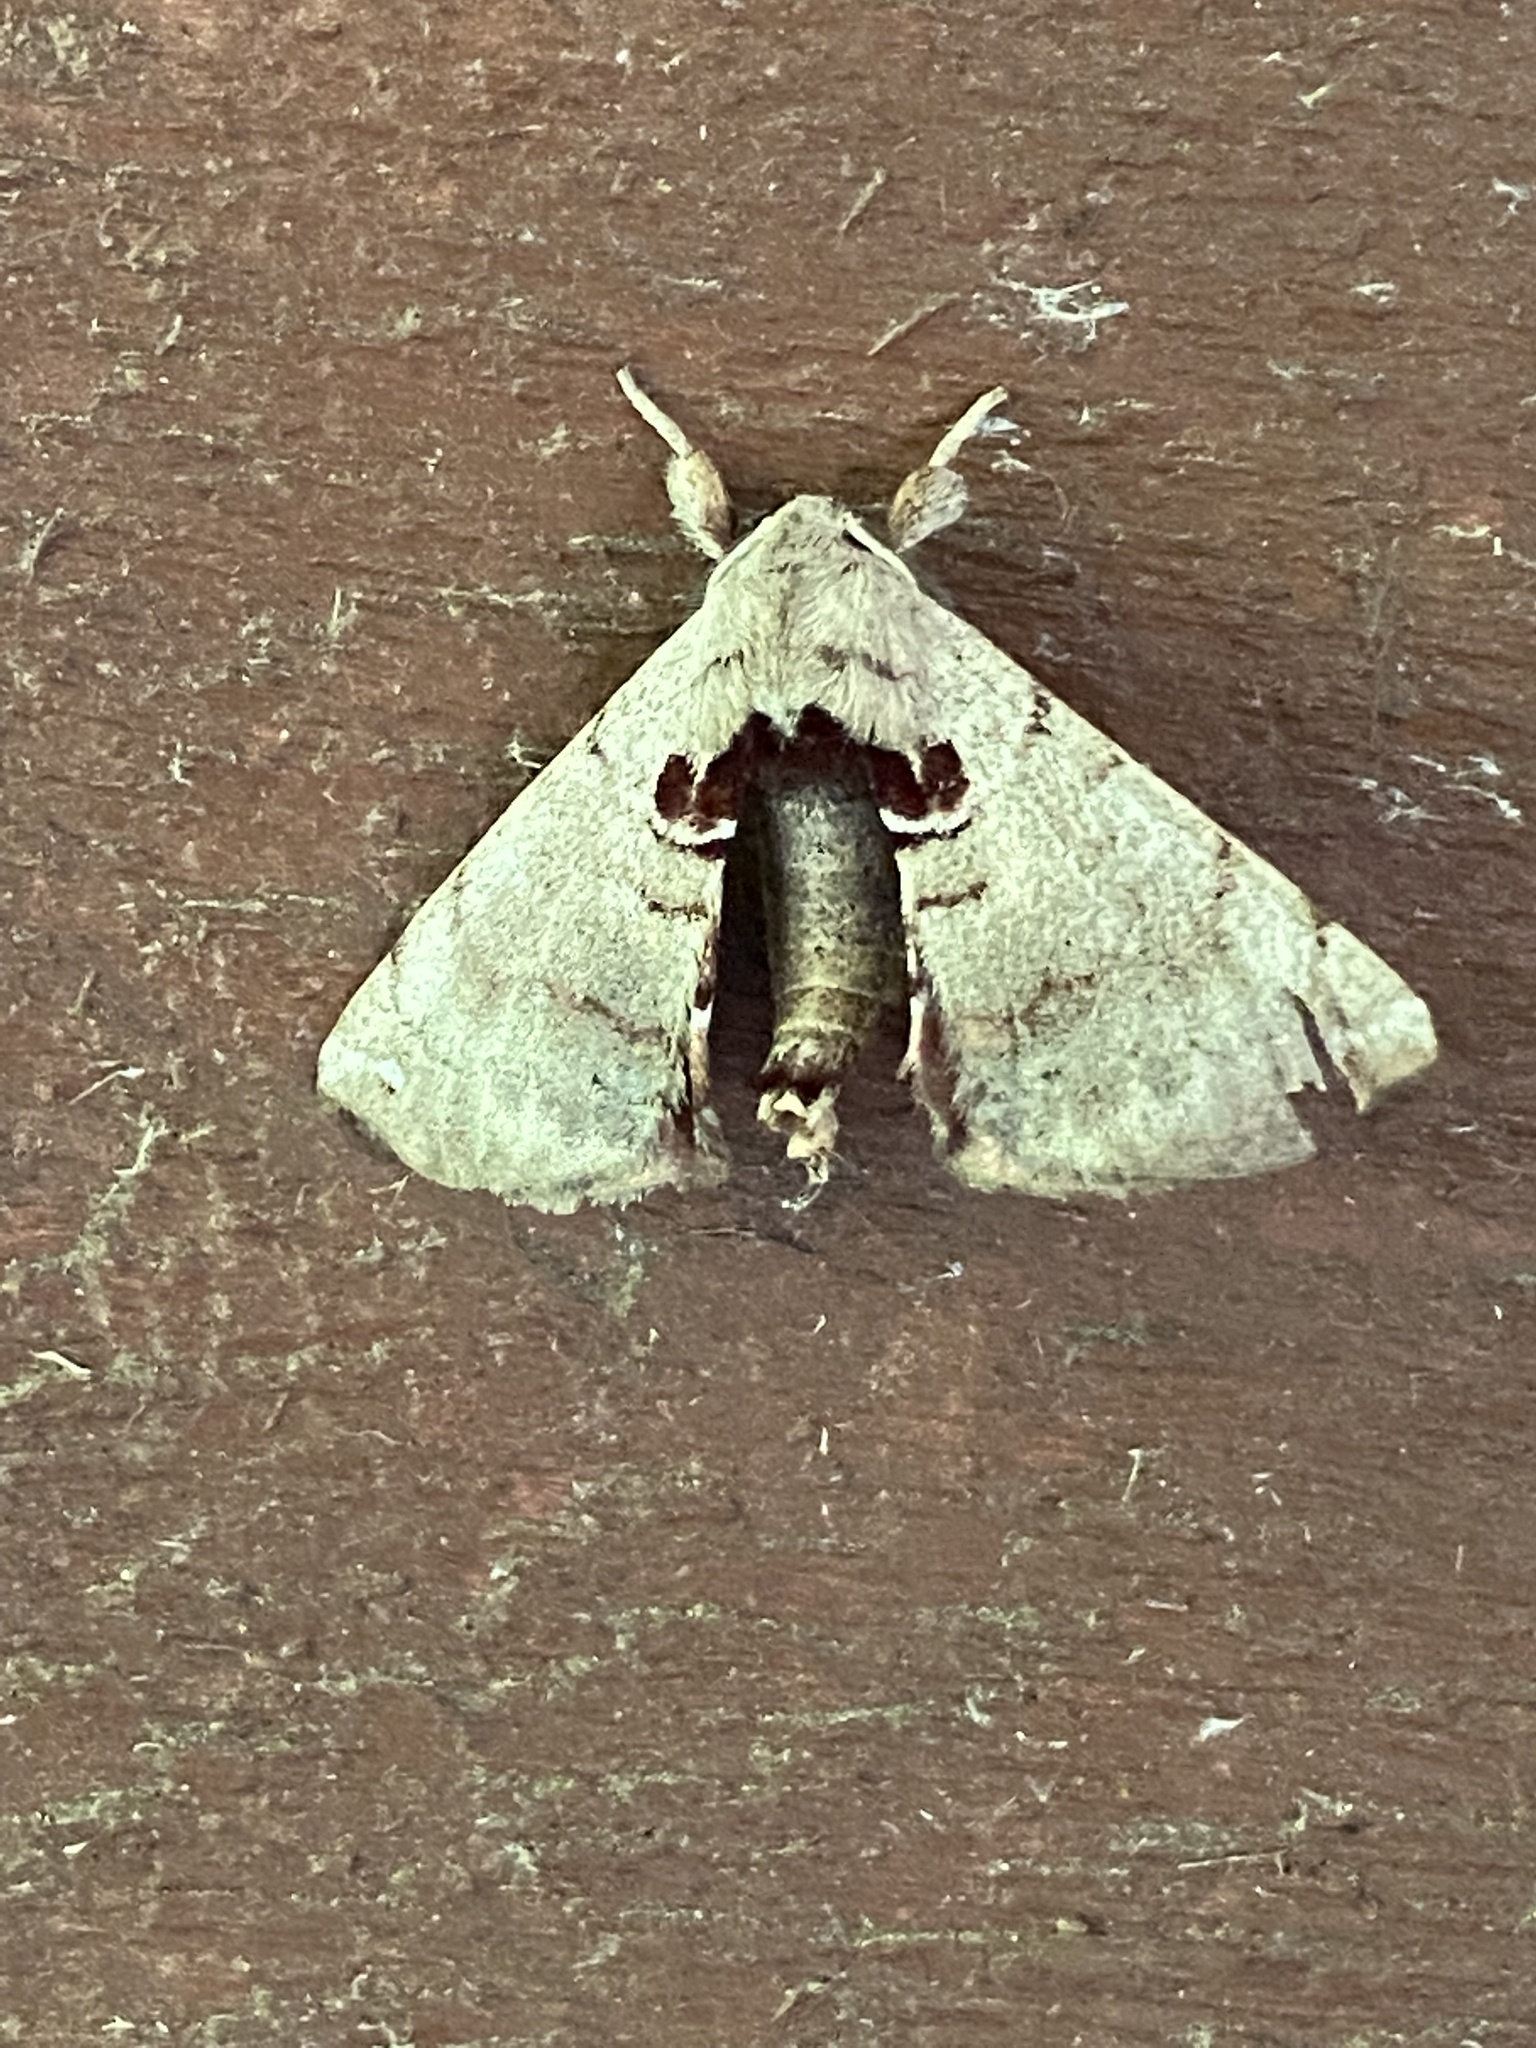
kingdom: Animalia
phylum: Arthropoda
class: Insecta
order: Lepidoptera
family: Apatelodidae
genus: Hygrochroa
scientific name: Hygrochroa Apatelodes torrefacta
